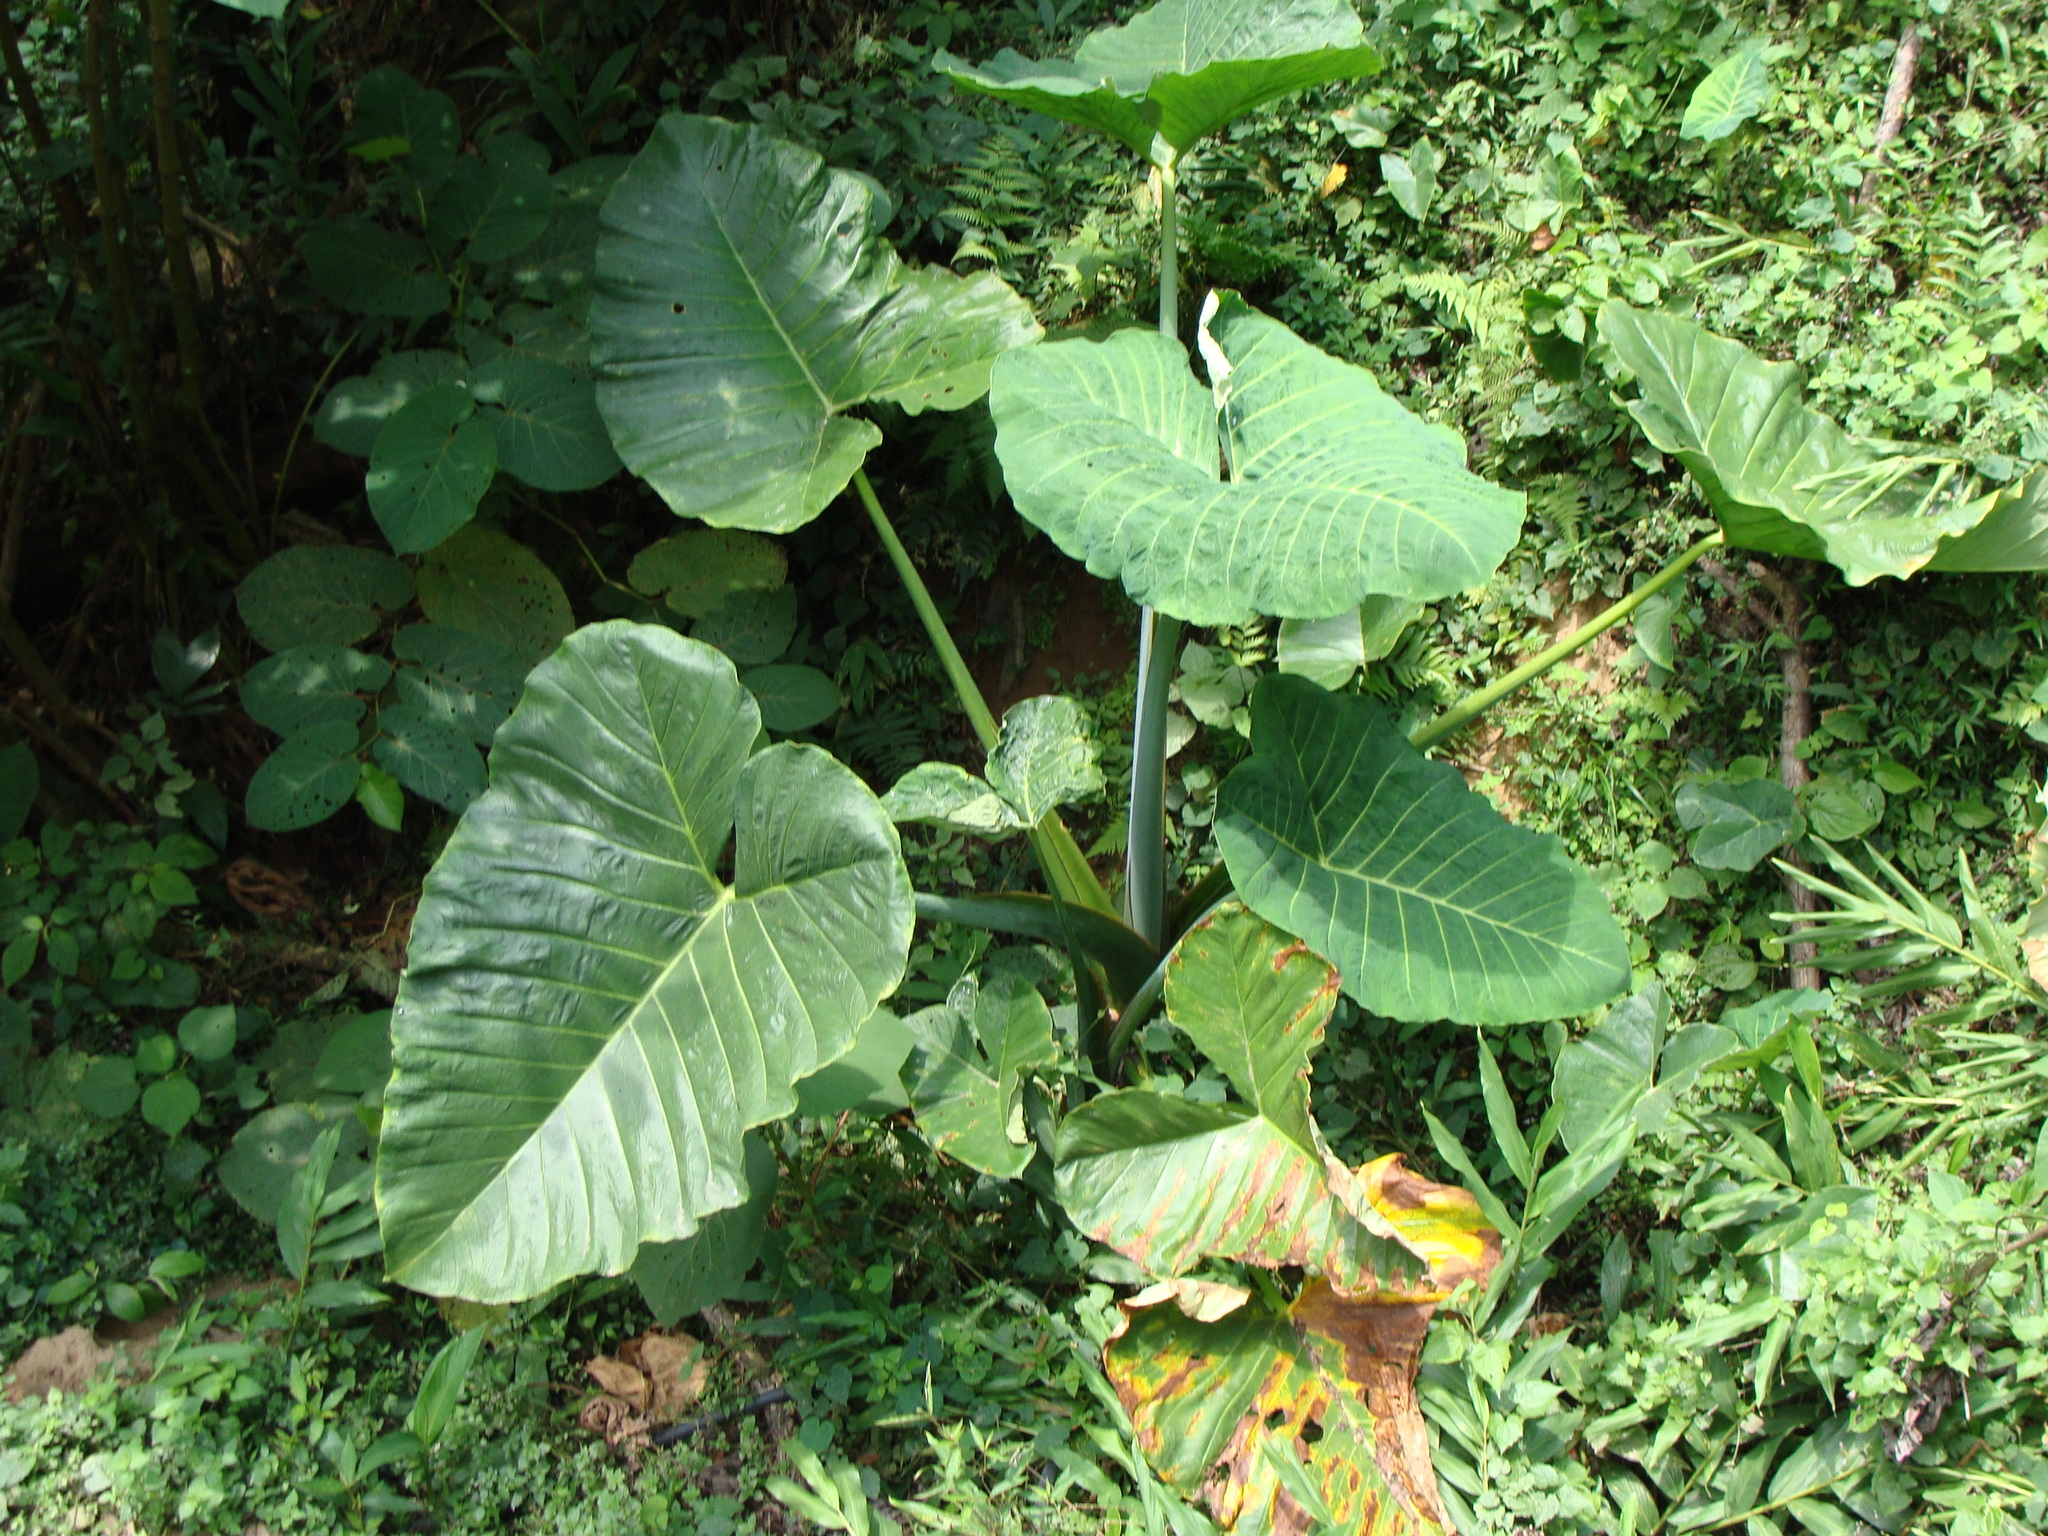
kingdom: Plantae
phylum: Tracheophyta
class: Liliopsida
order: Alismatales
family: Araceae
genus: Xanthosoma
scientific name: Xanthosoma robustum
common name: Capote
